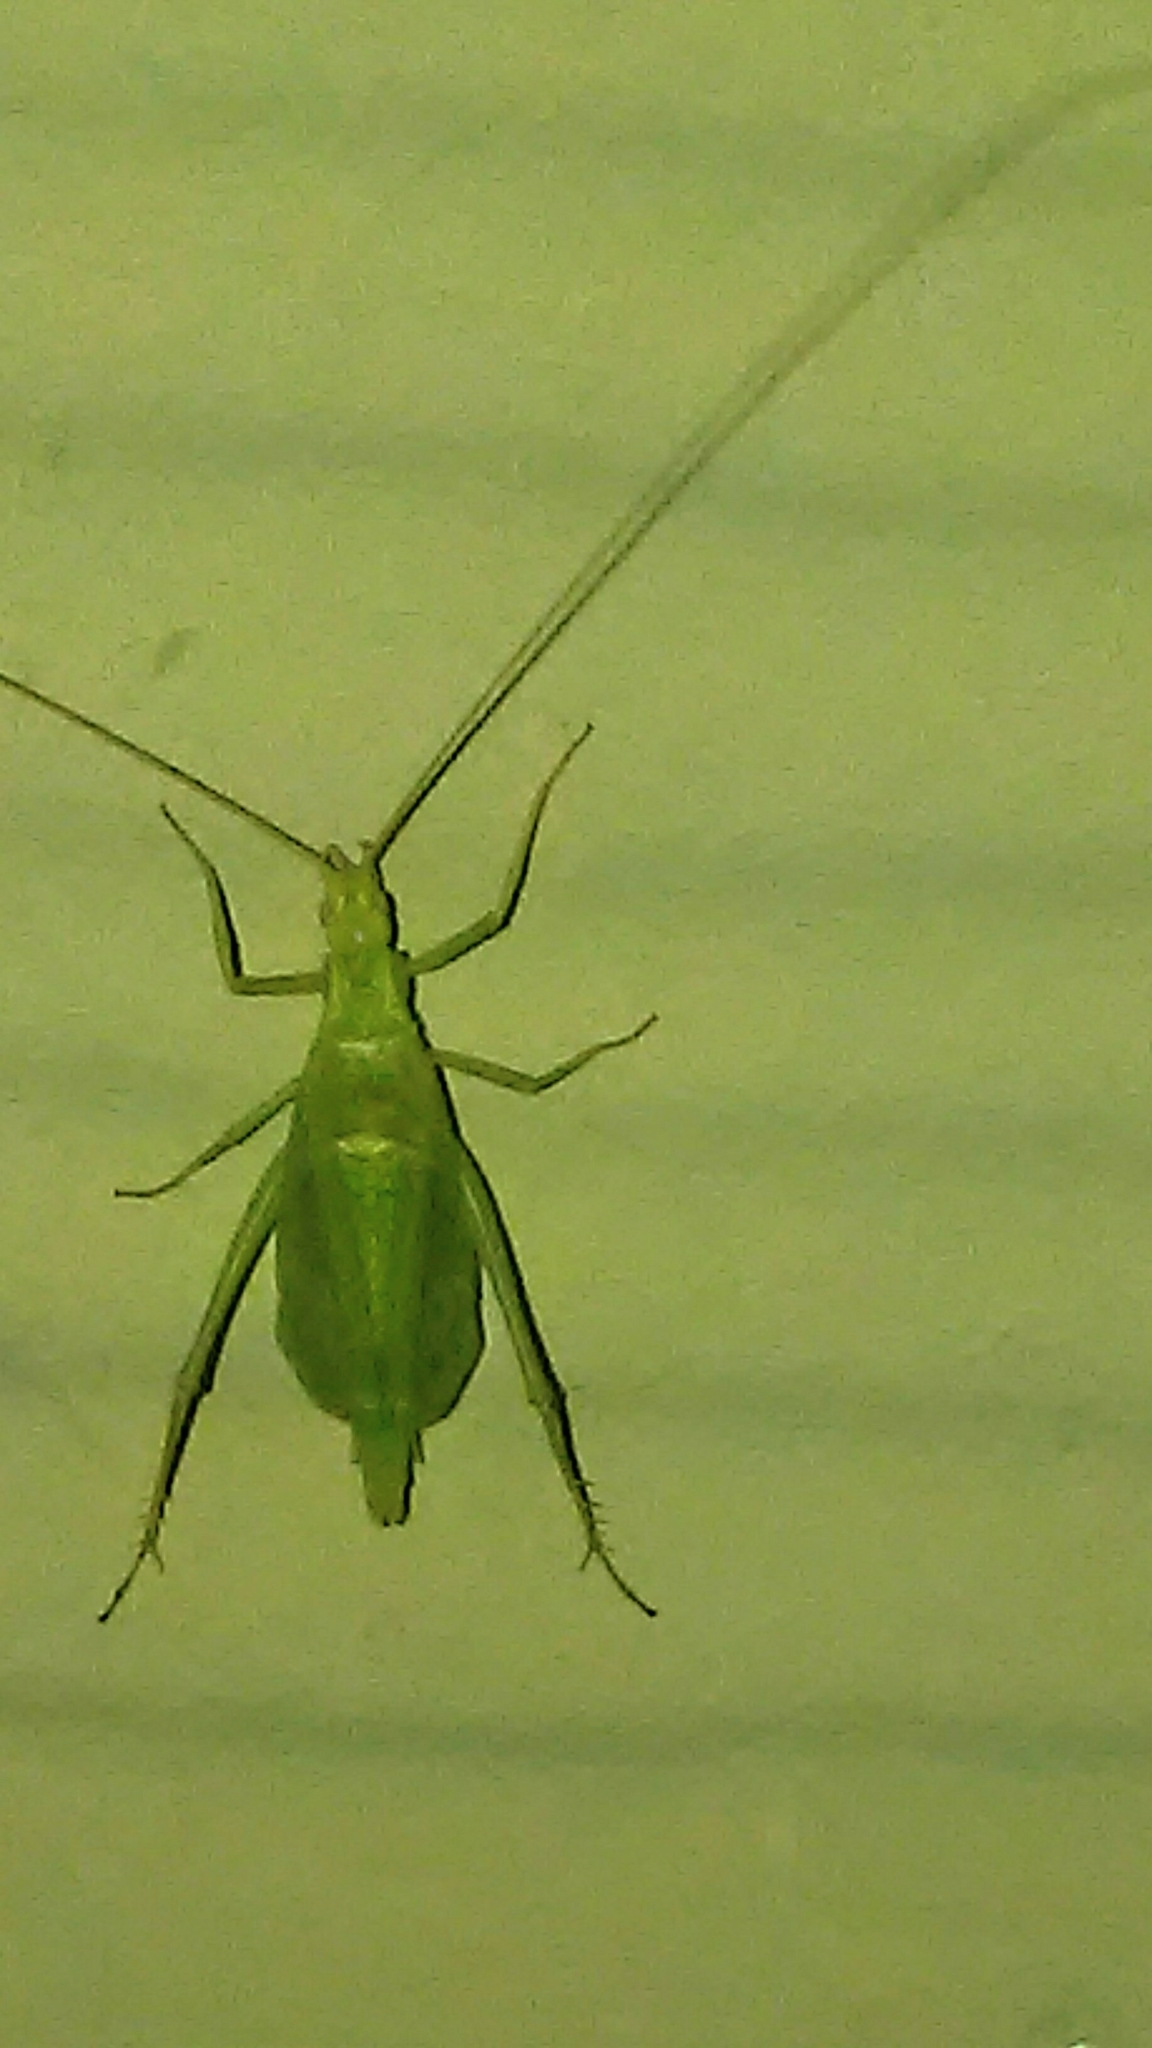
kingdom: Animalia
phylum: Arthropoda
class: Insecta
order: Orthoptera
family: Gryllidae
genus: Oecanthus
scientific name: Oecanthus celerinictus
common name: Fast-calling tree cricket
